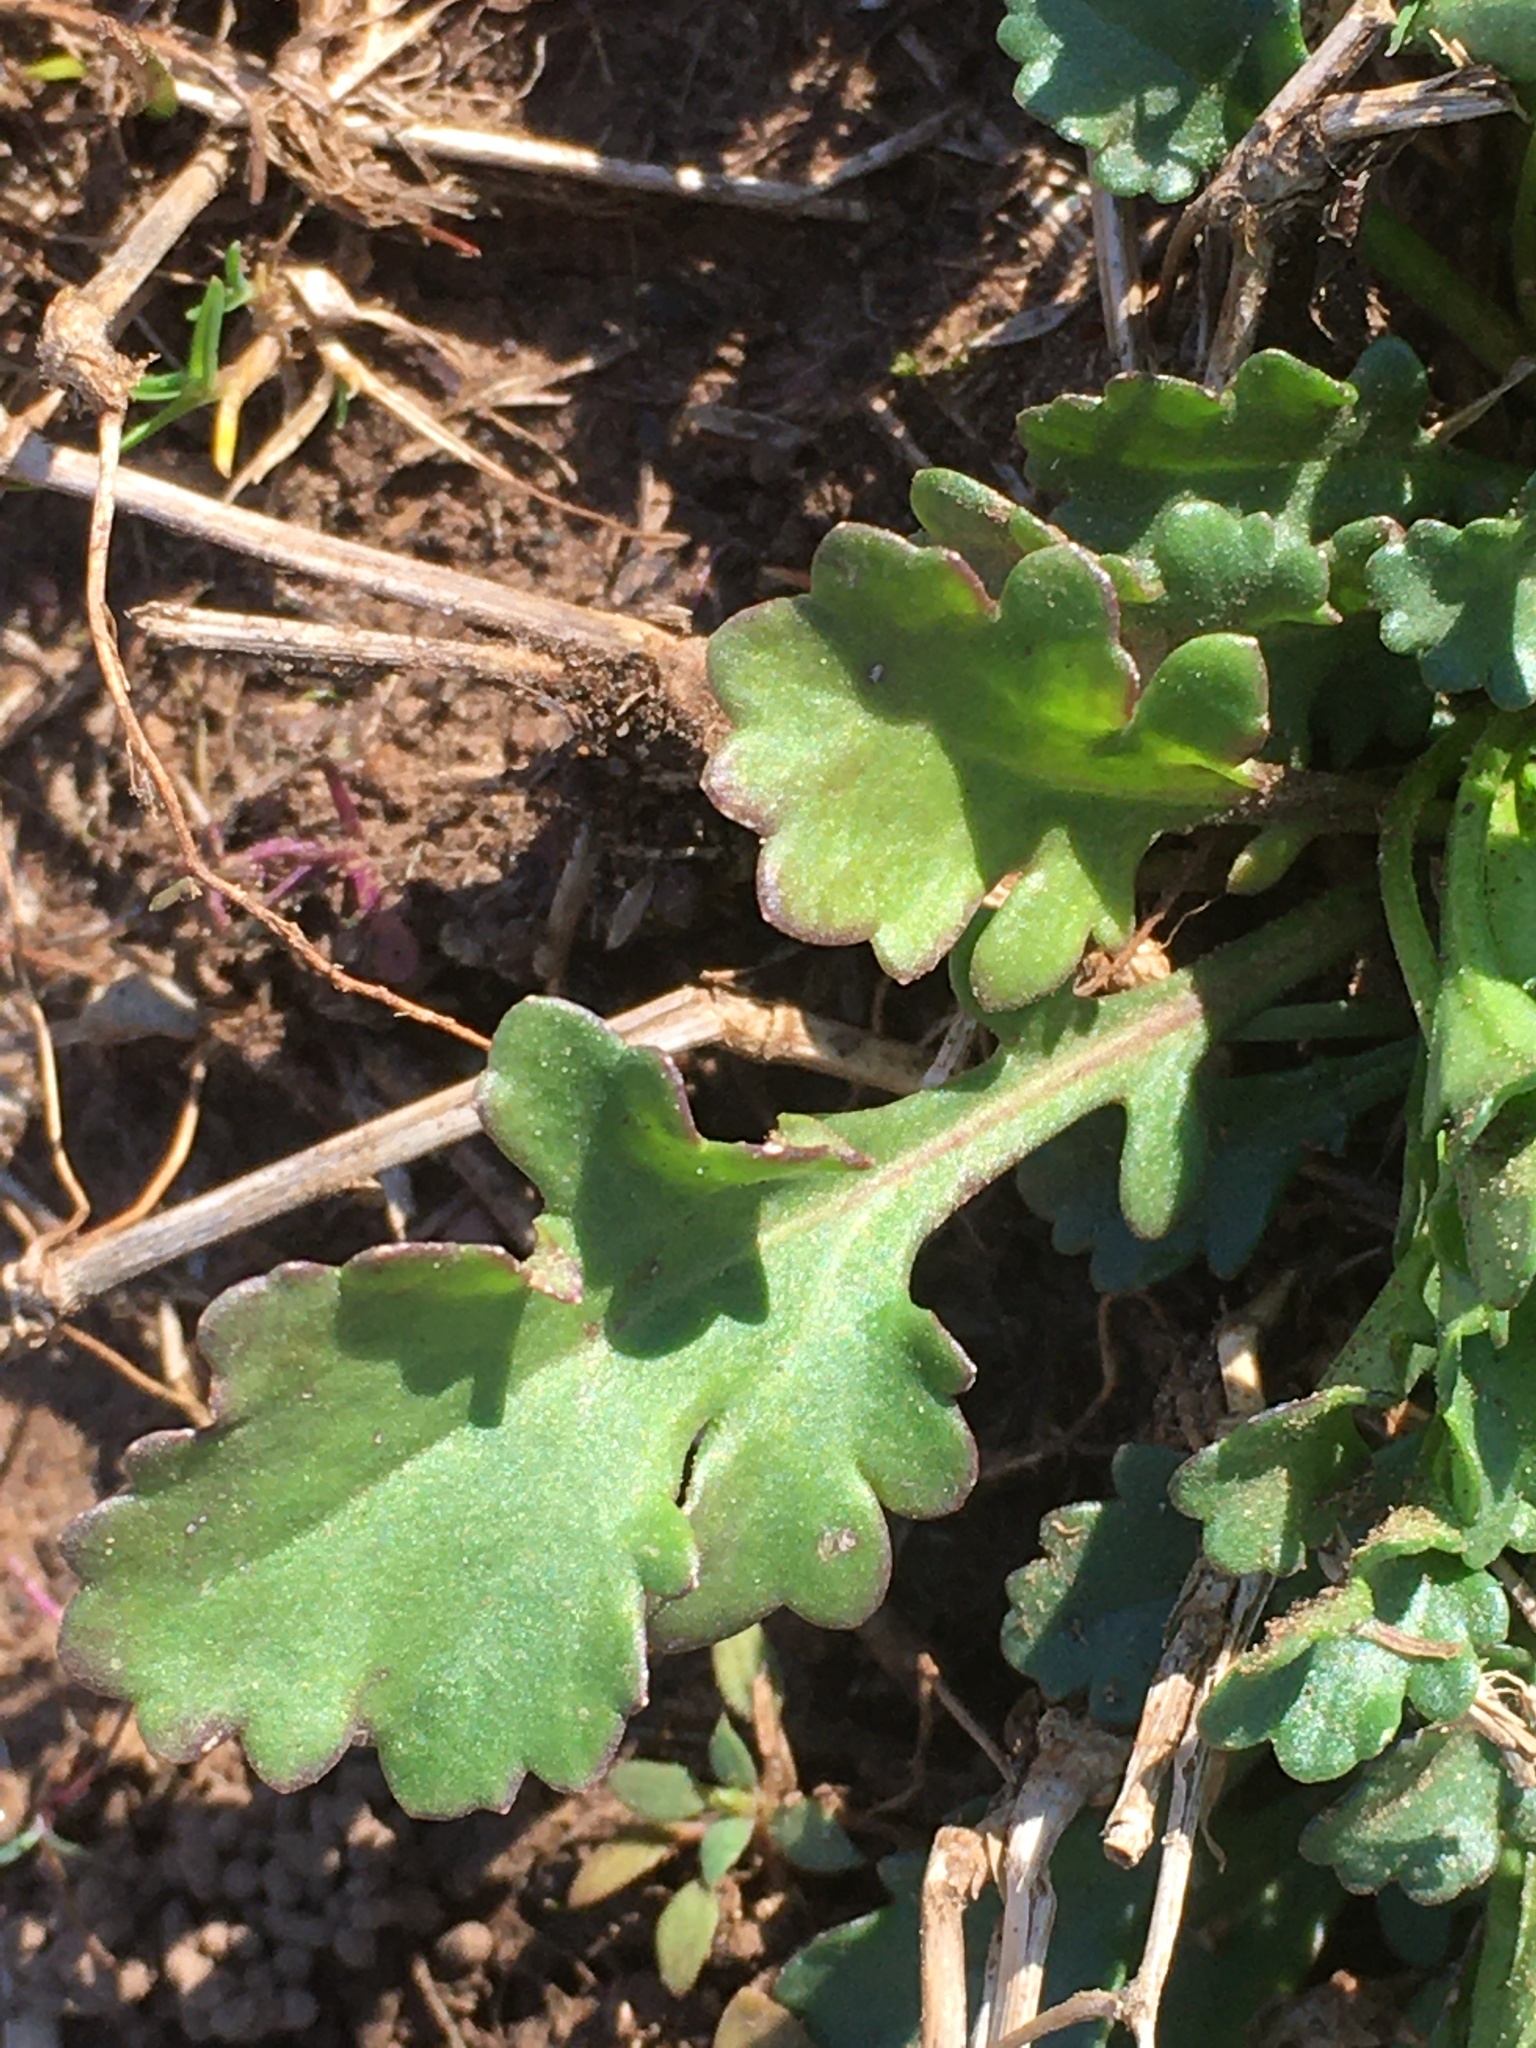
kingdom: Plantae
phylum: Tracheophyta
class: Magnoliopsida
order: Asterales
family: Asteraceae
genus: Leucanthemum
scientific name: Leucanthemum vulgare
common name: Oxeye daisy
